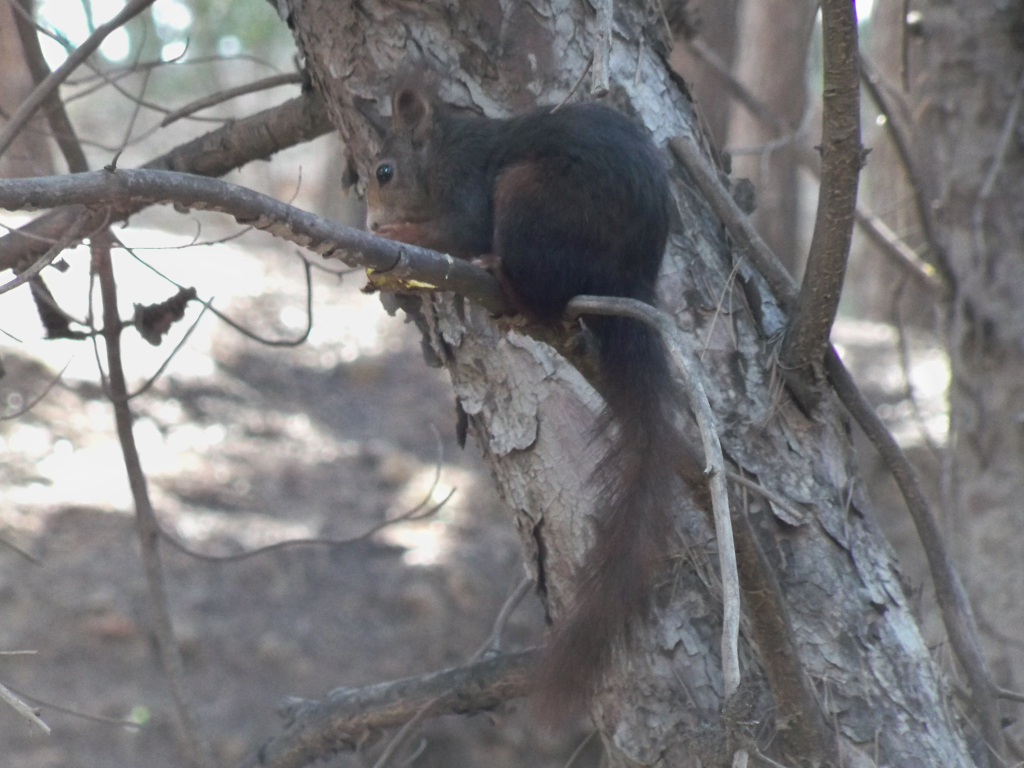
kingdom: Animalia
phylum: Chordata
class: Mammalia
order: Rodentia
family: Sciuridae
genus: Sciurus
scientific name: Sciurus vulgaris
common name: Eurasian red squirrel
